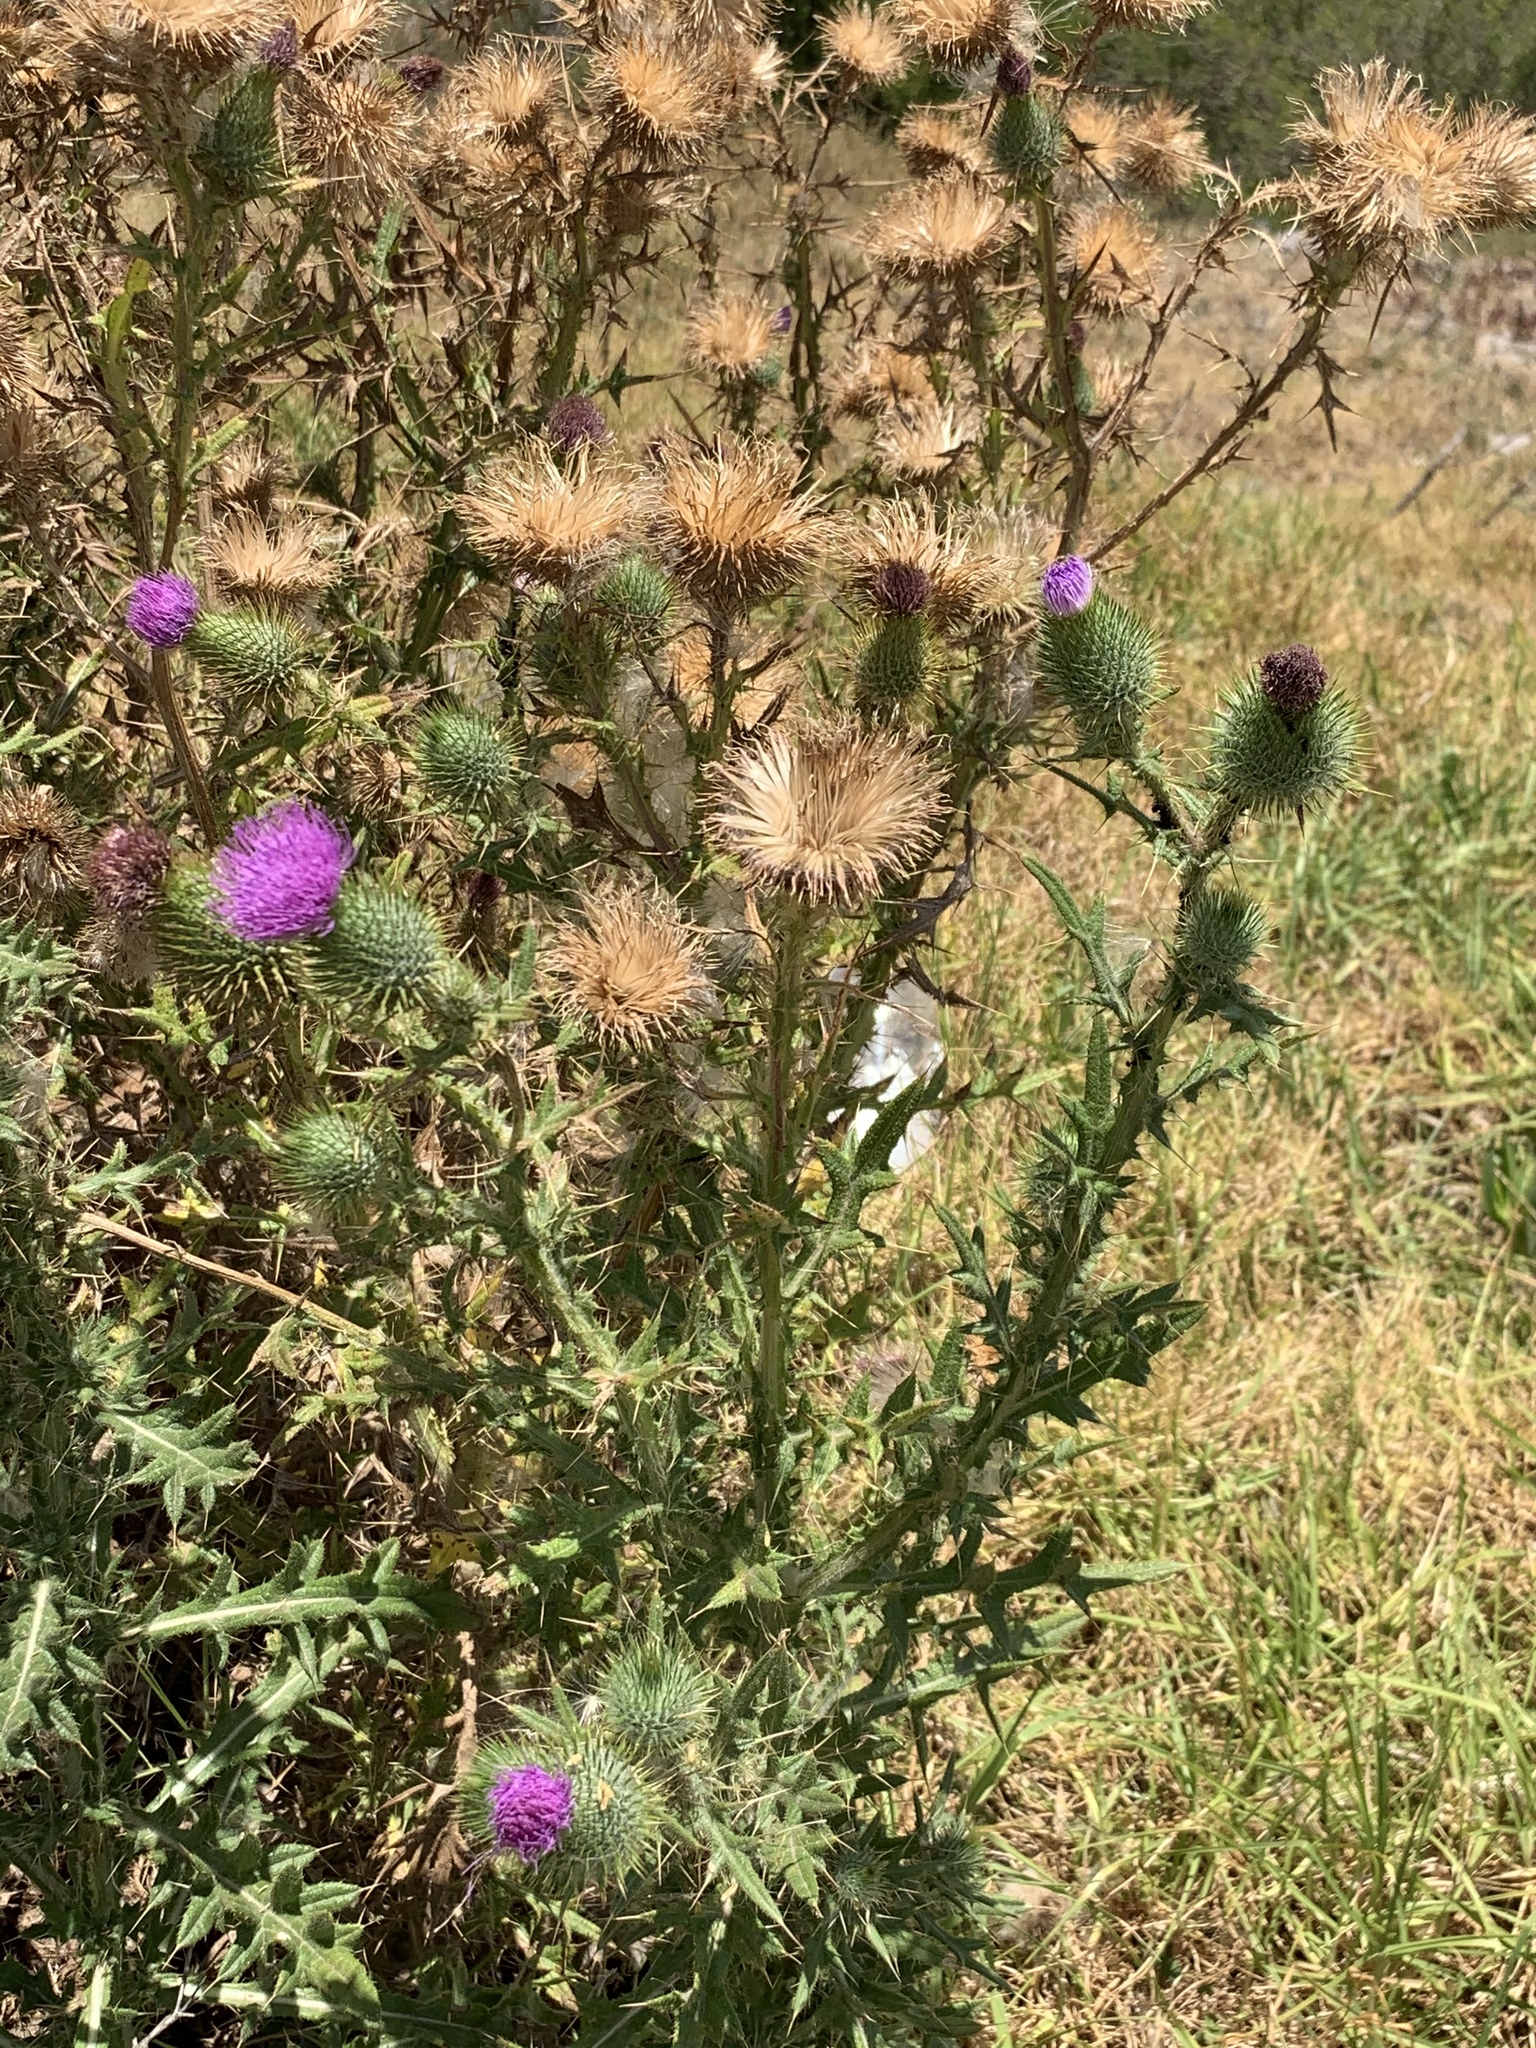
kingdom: Plantae
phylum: Tracheophyta
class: Magnoliopsida
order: Asterales
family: Asteraceae
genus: Cirsium
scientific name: Cirsium vulgare
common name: Bull thistle
